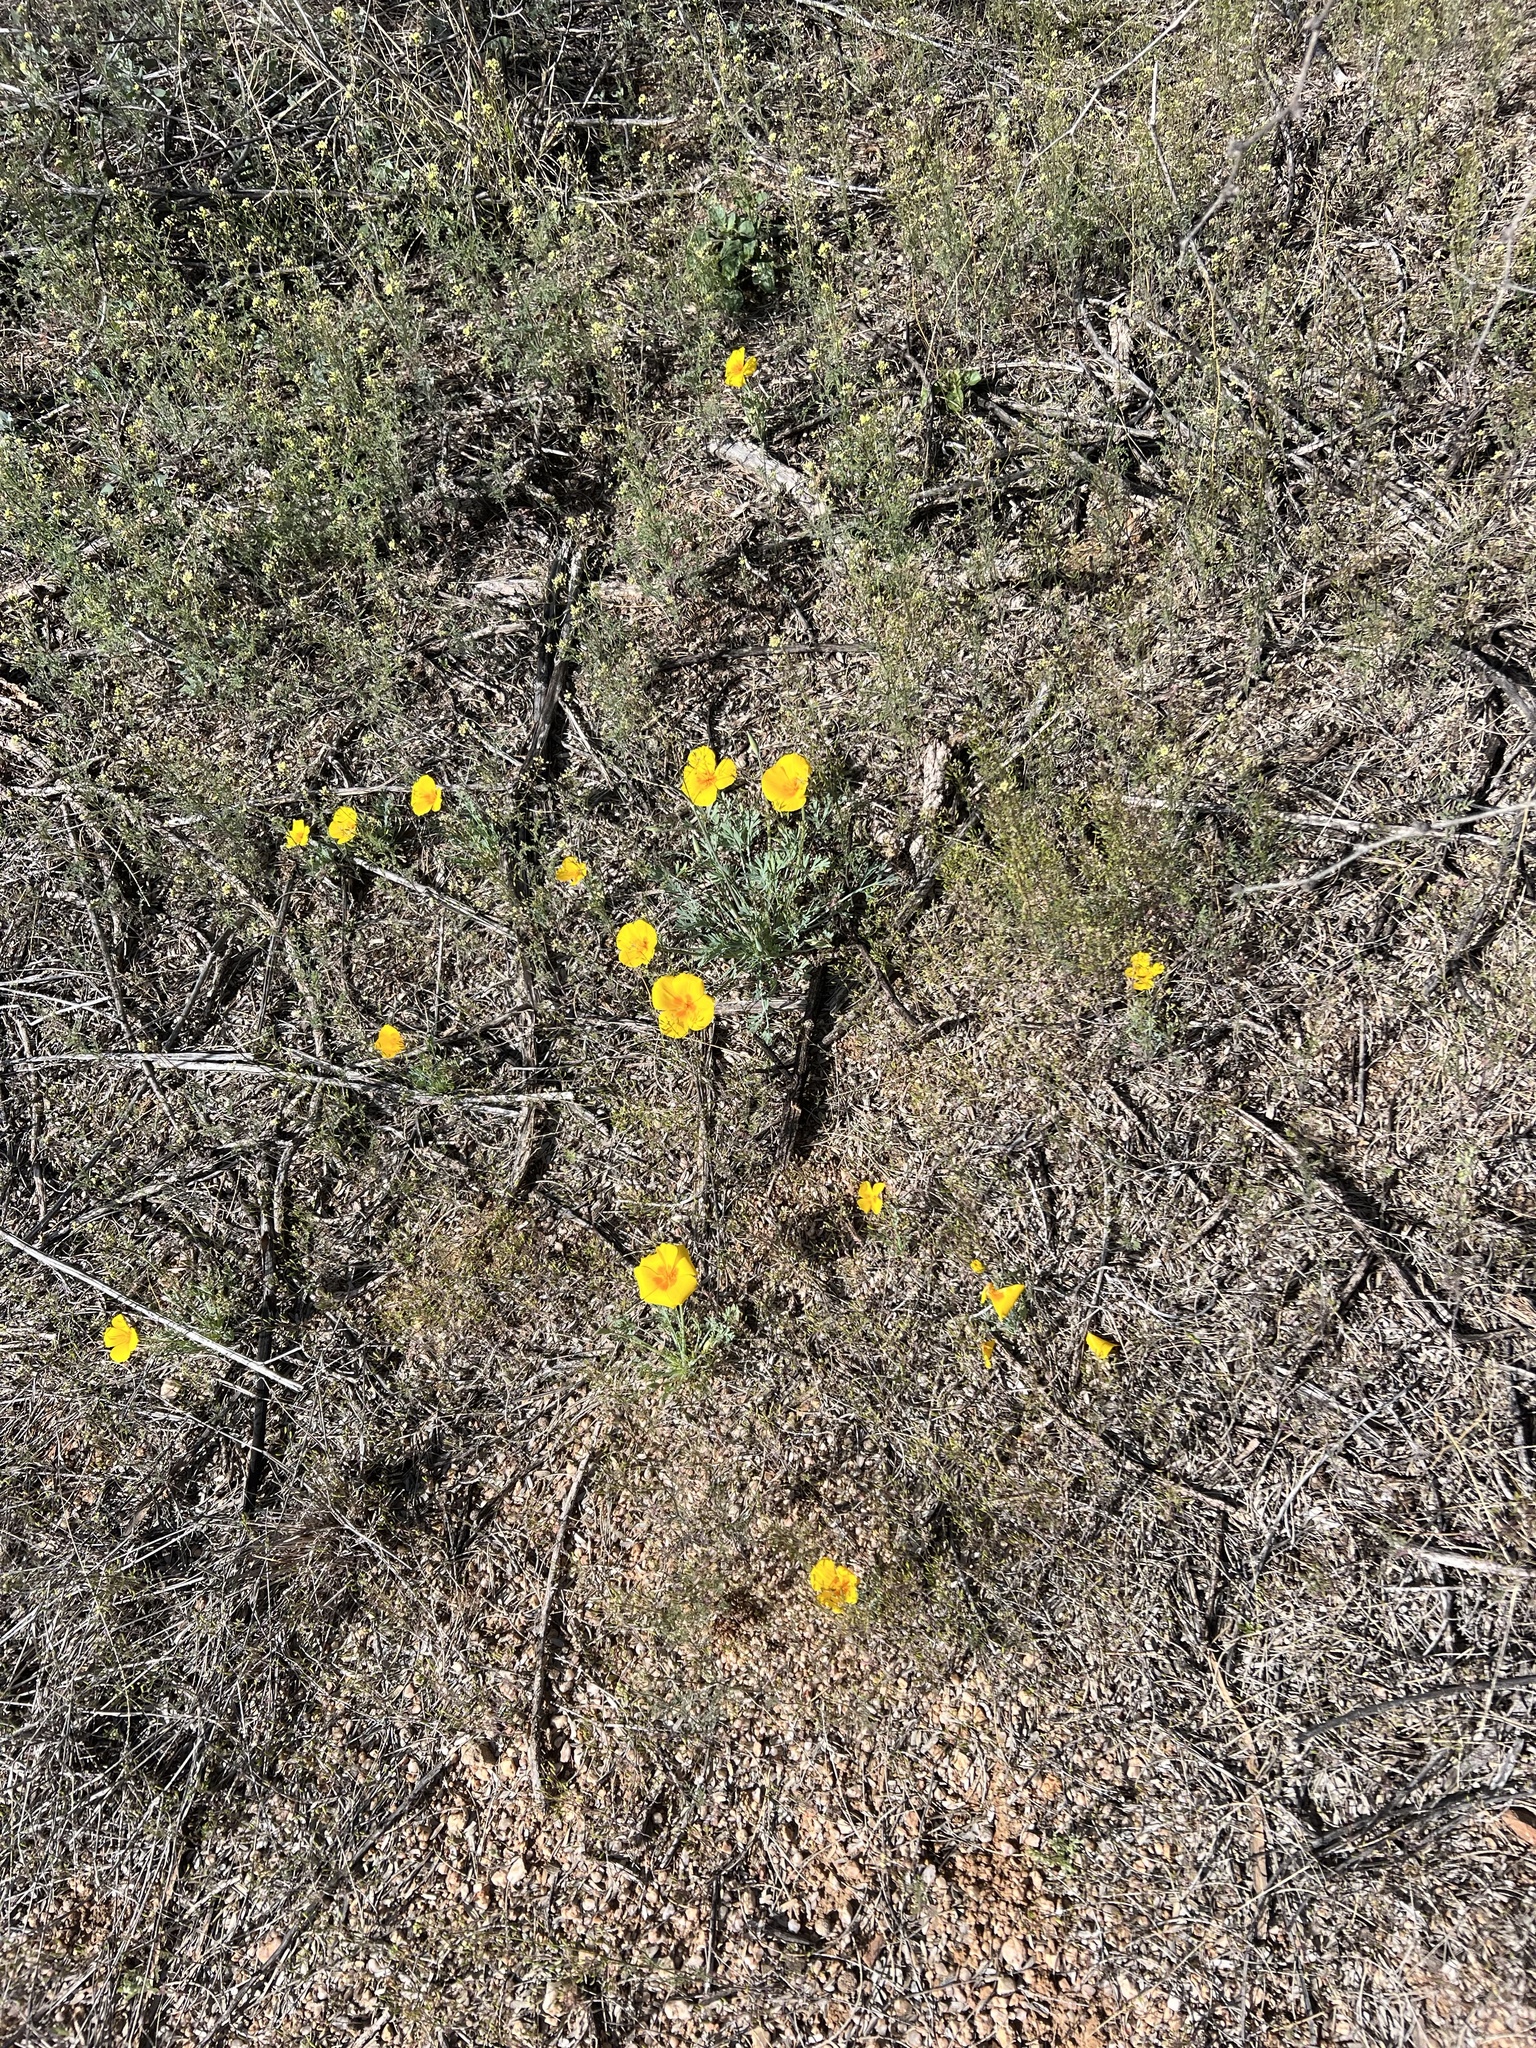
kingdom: Plantae
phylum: Tracheophyta
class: Magnoliopsida
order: Ranunculales
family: Papaveraceae
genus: Eschscholzia
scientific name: Eschscholzia californica
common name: California poppy
